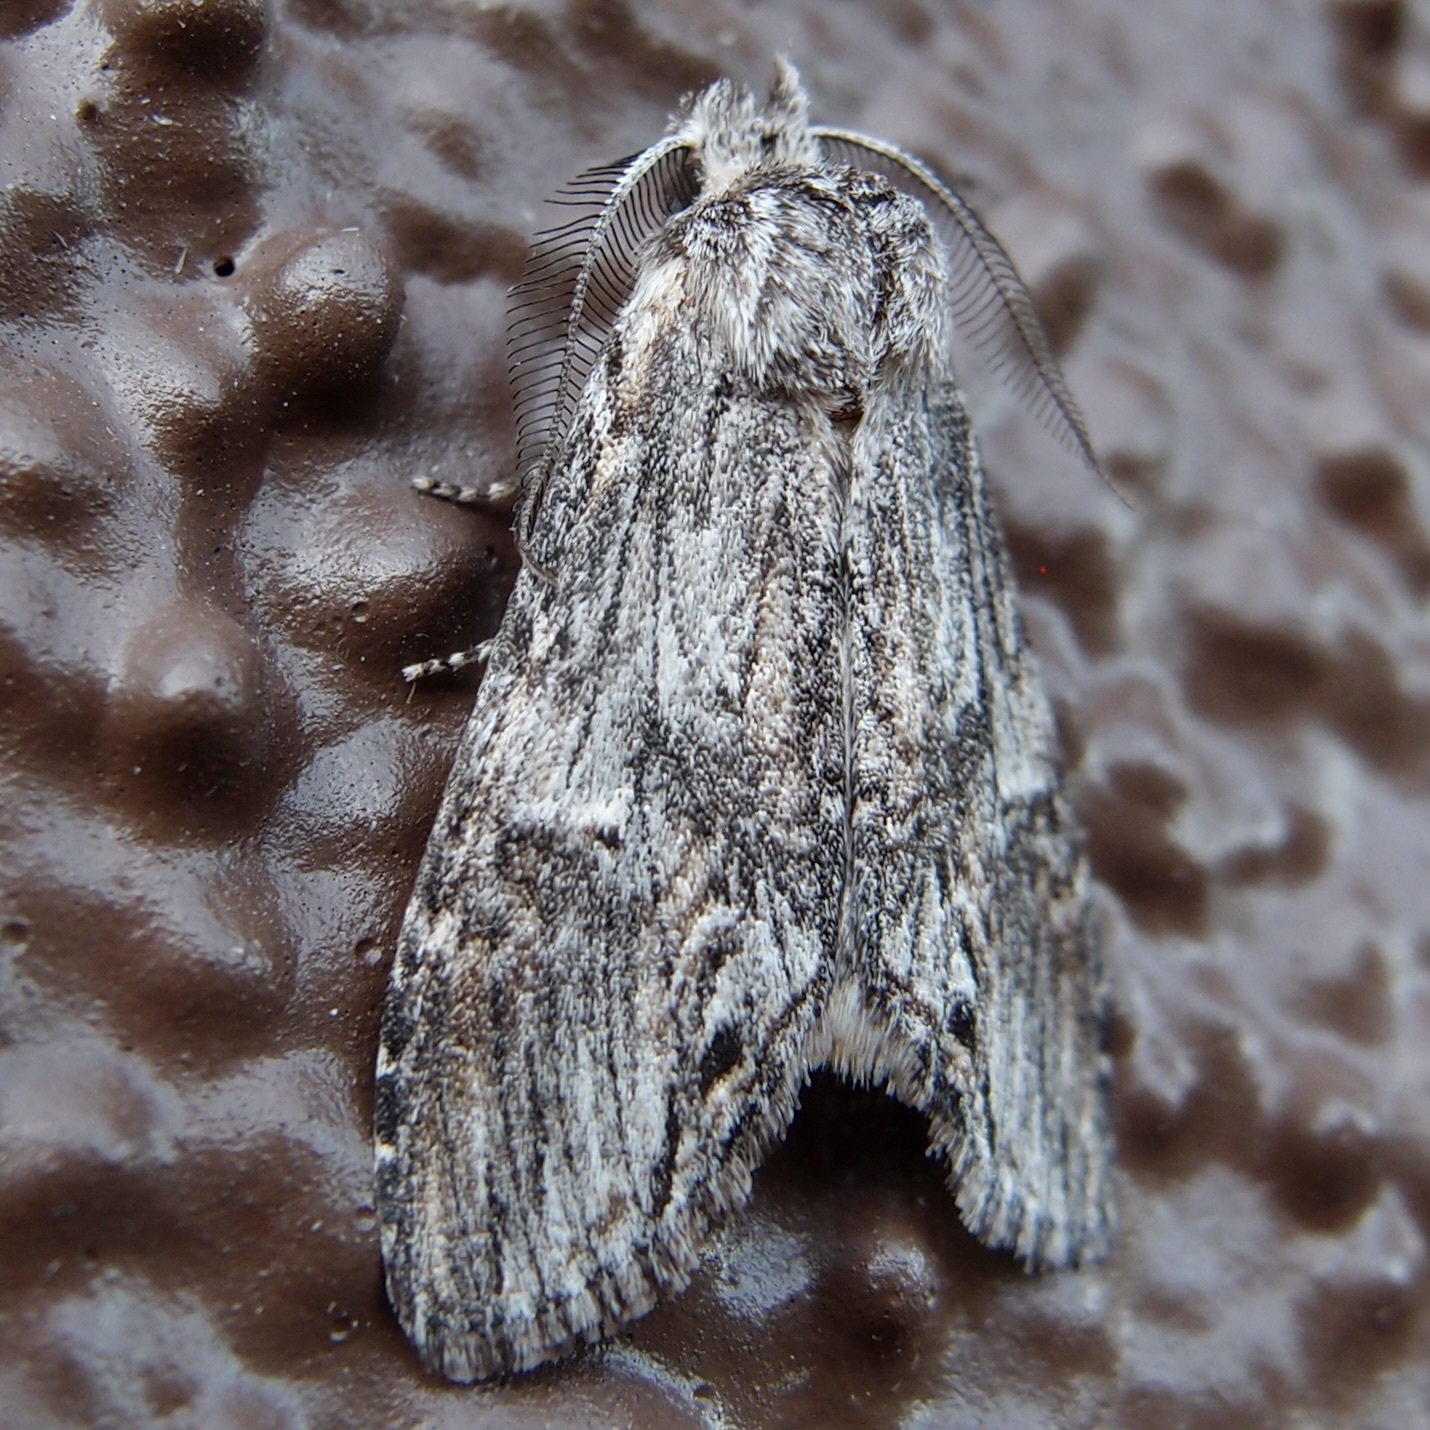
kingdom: Animalia
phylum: Arthropoda
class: Insecta
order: Lepidoptera
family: Notodontidae
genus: Notela
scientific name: Notela jaliscana
